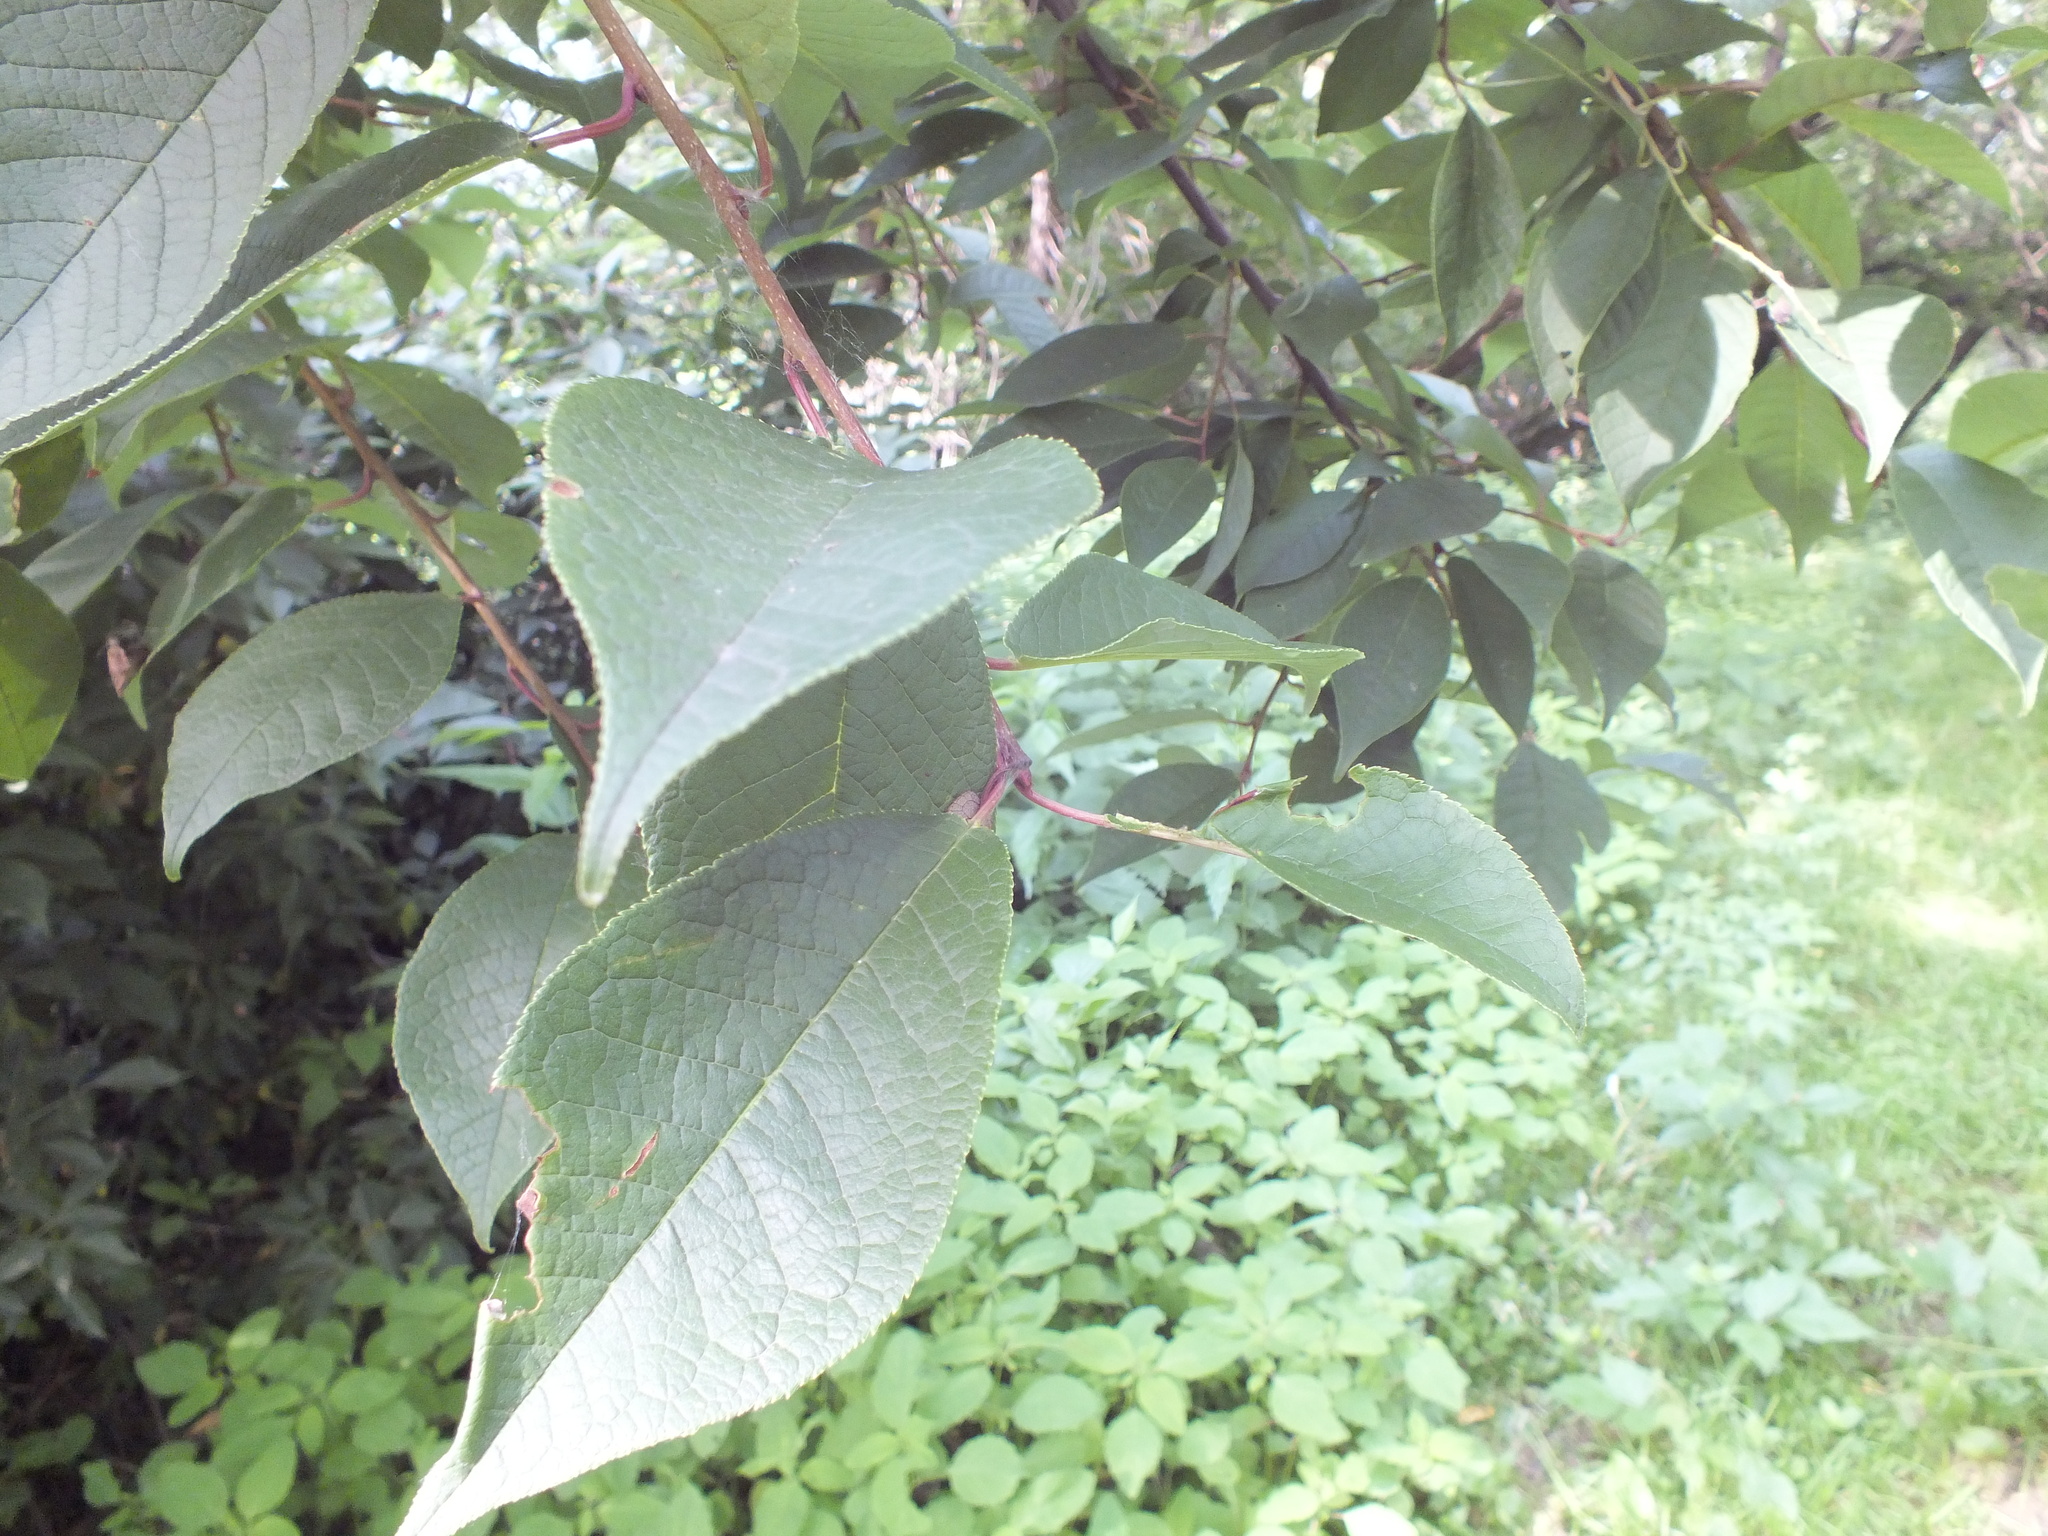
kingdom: Plantae
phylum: Tracheophyta
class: Magnoliopsida
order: Rosales
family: Rosaceae
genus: Prunus
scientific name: Prunus padus
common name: Bird cherry
